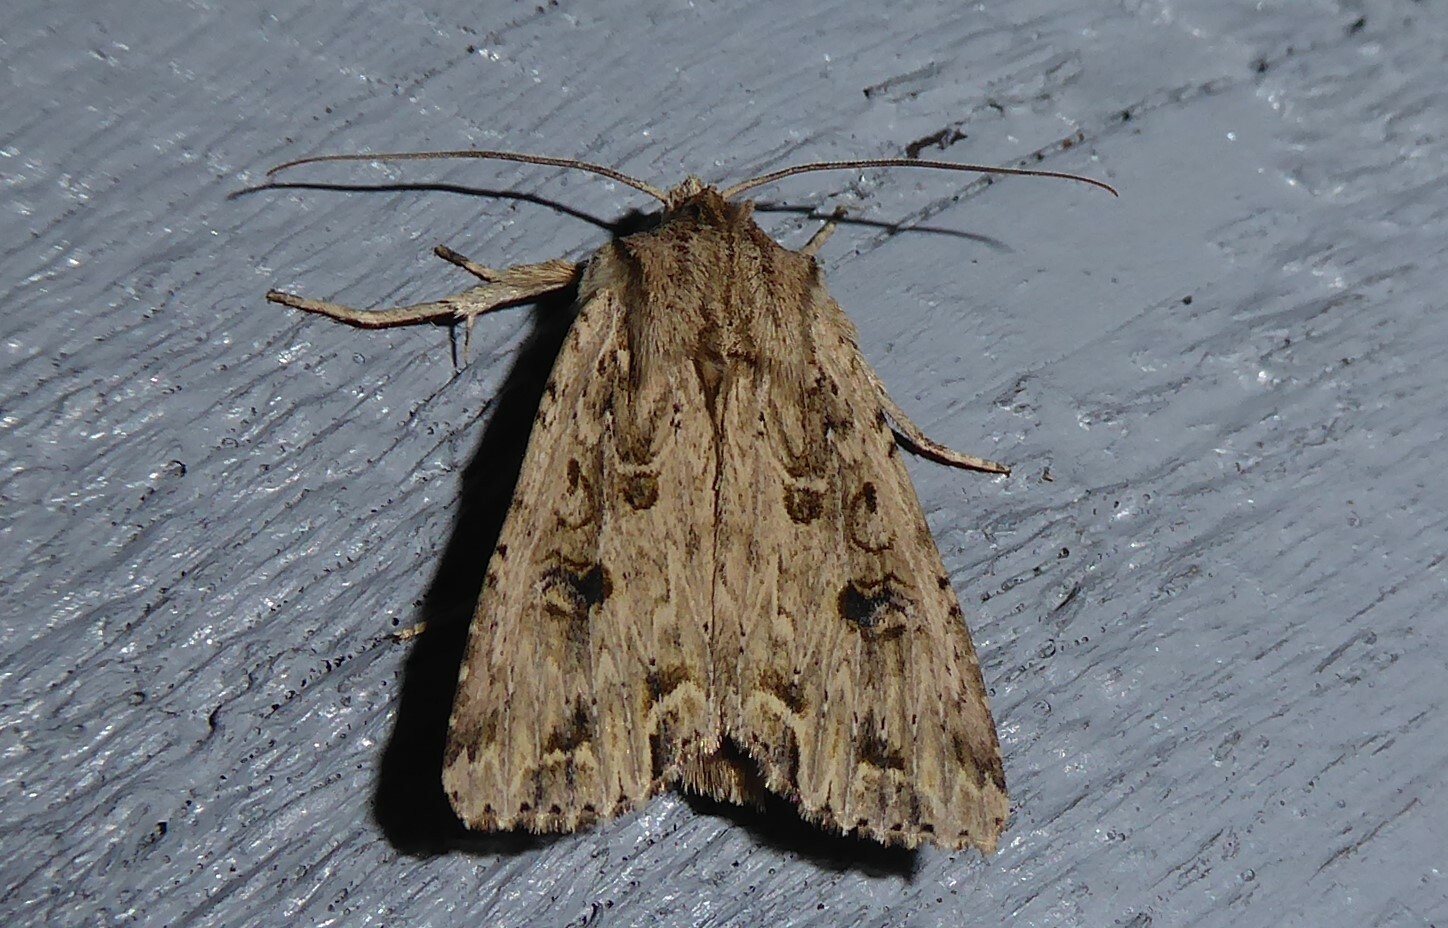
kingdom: Animalia
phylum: Arthropoda
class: Insecta
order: Lepidoptera
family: Noctuidae
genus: Ichneutica
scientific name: Ichneutica lignana
